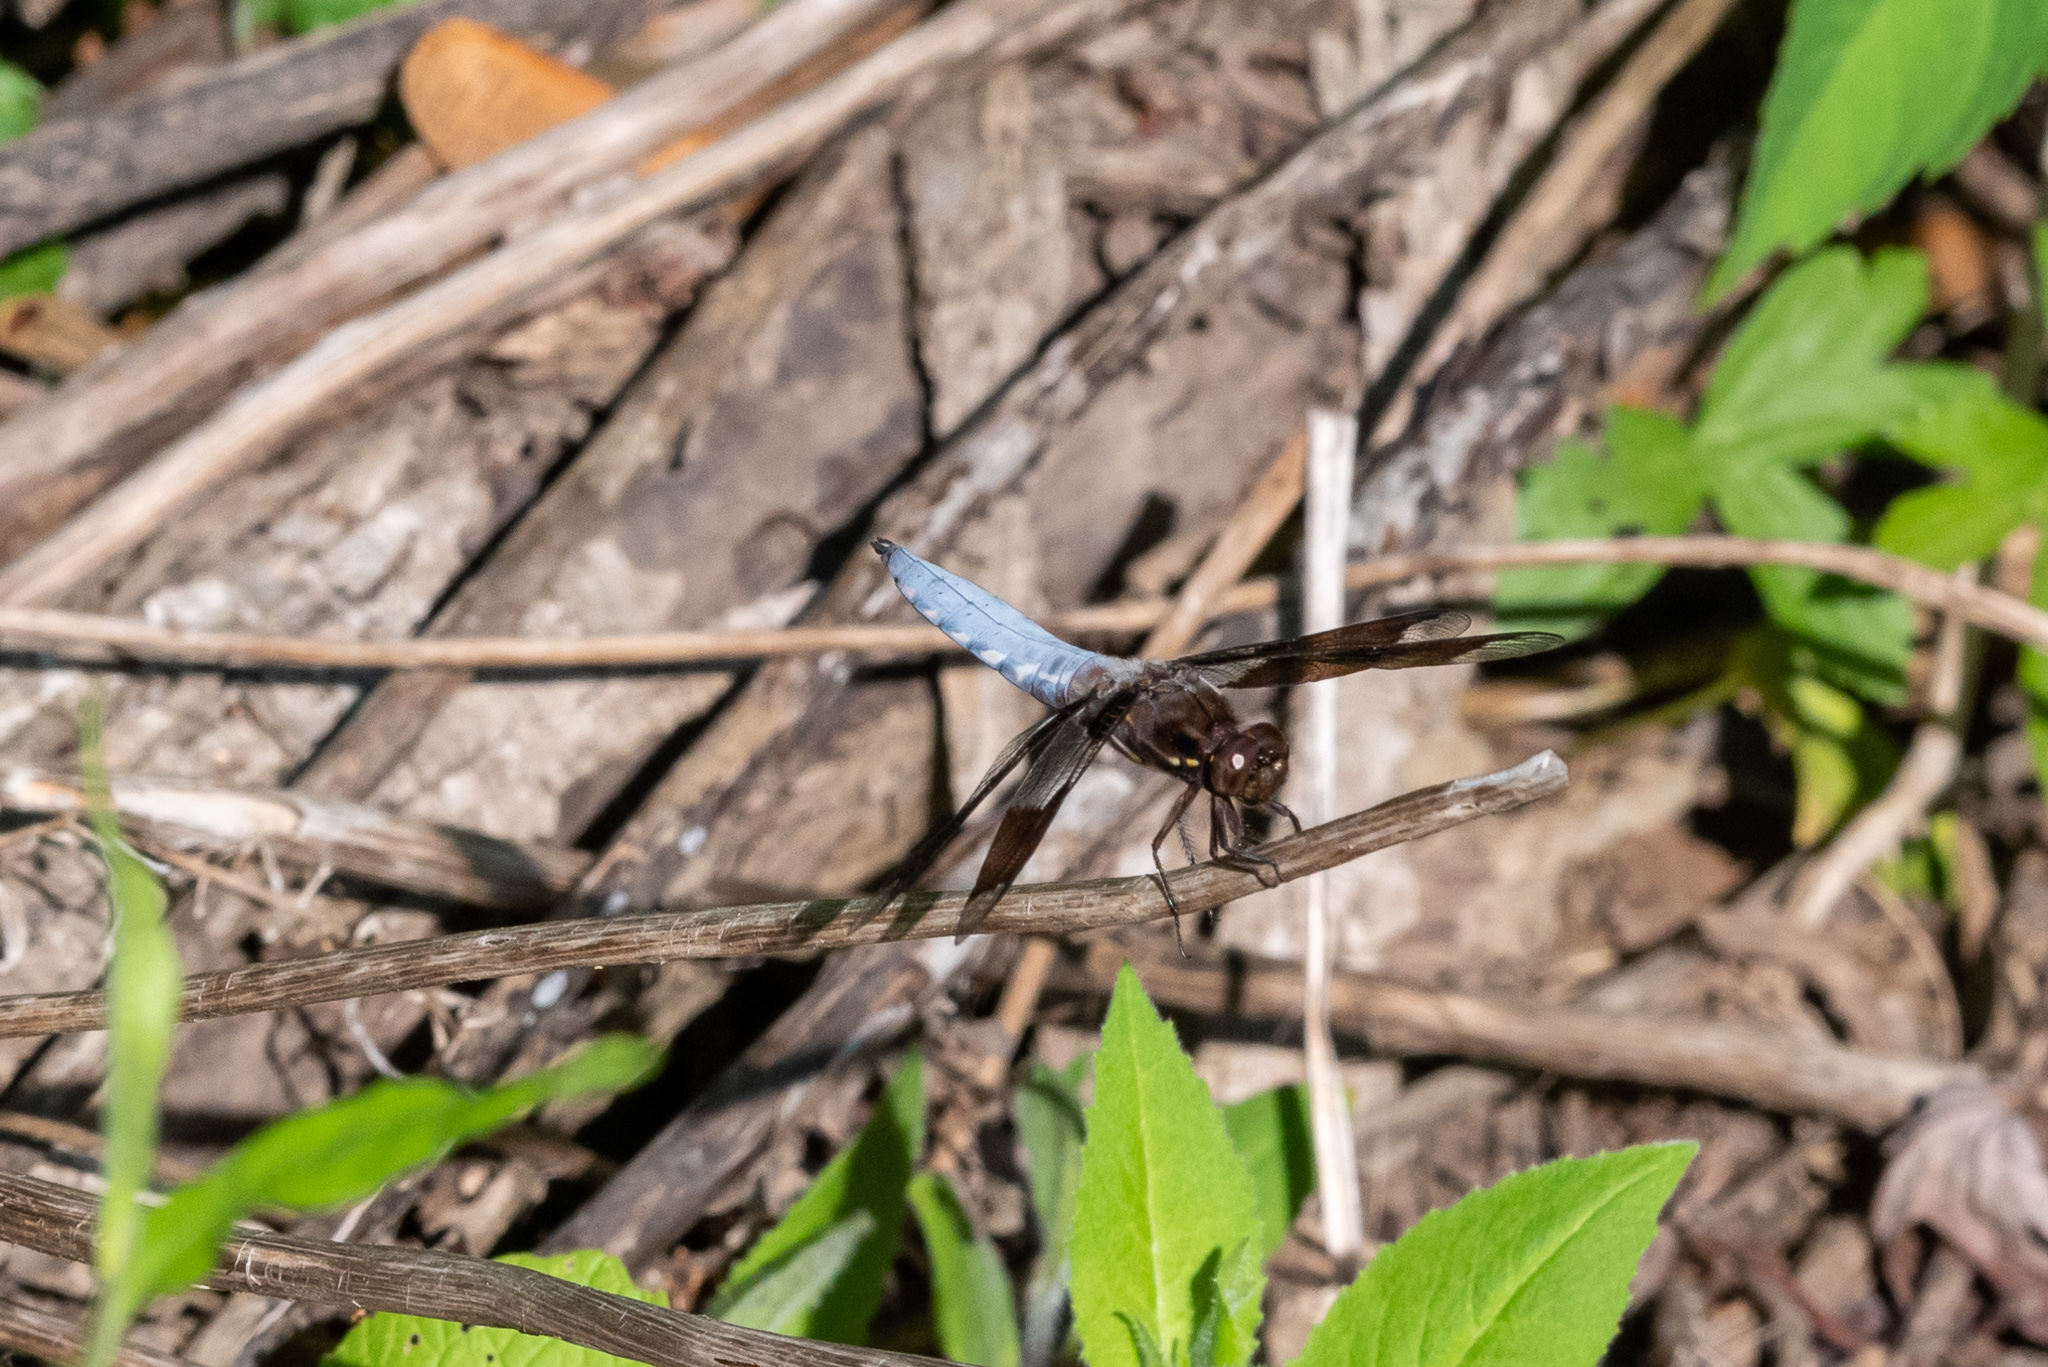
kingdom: Animalia
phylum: Arthropoda
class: Insecta
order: Odonata
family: Libellulidae
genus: Plathemis
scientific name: Plathemis lydia
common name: Common whitetail
